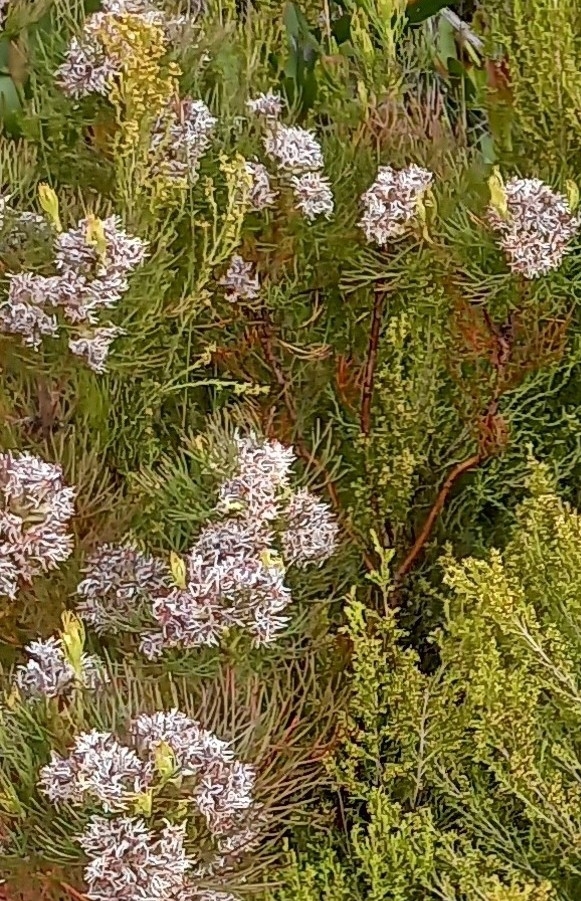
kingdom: Plantae
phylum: Tracheophyta
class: Magnoliopsida
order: Proteales
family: Proteaceae
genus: Serruria
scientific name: Serruria ascendens
